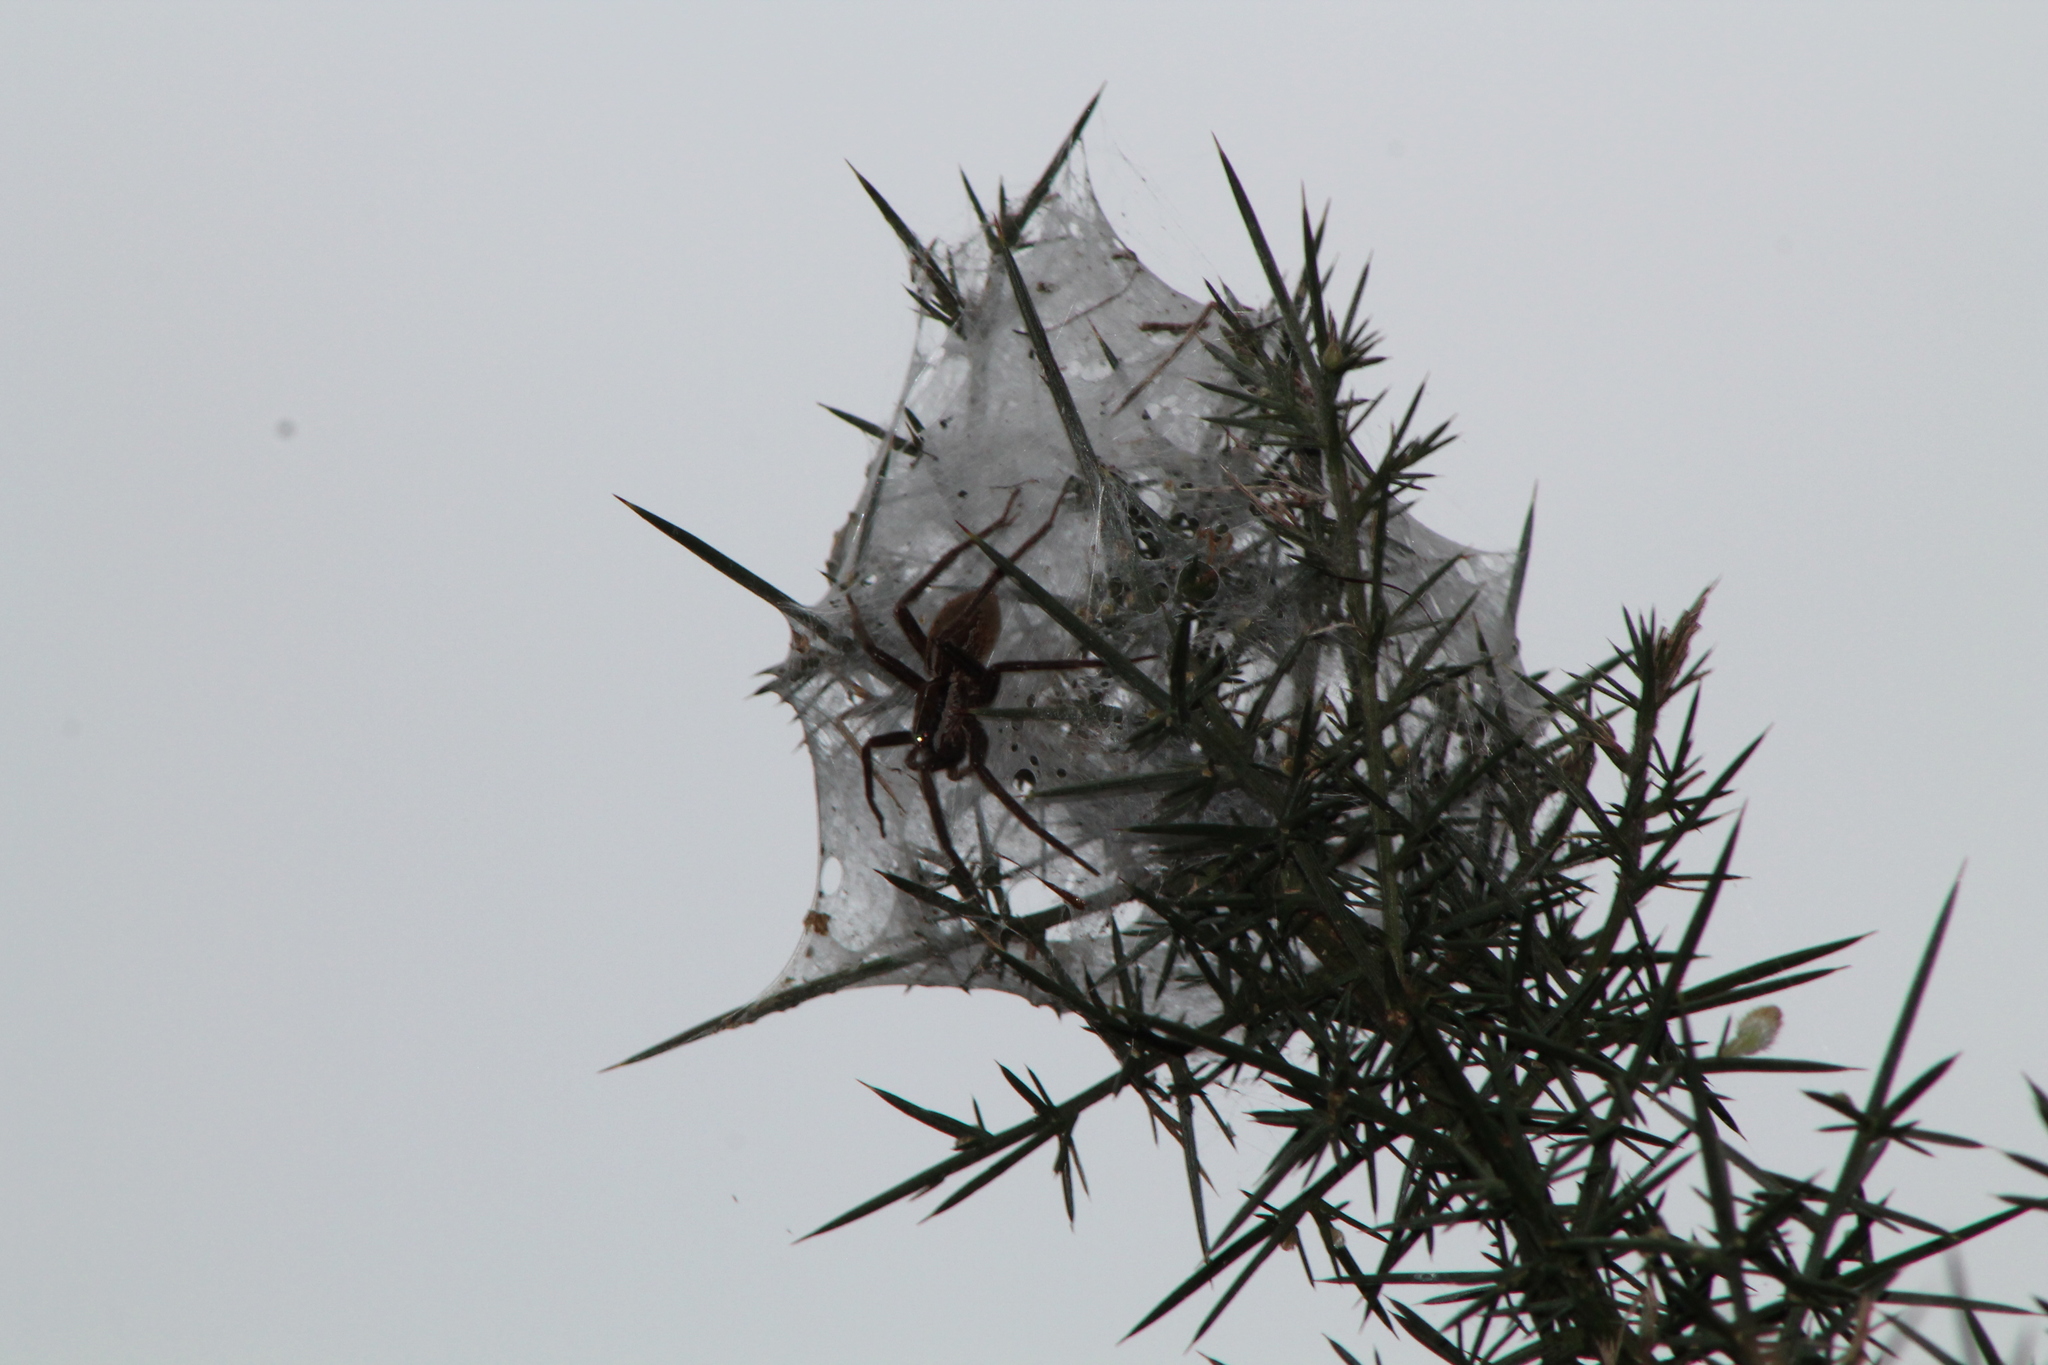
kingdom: Animalia
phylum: Arthropoda
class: Arachnida
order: Araneae
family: Pisauridae
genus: Dolomedes
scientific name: Dolomedes minor
